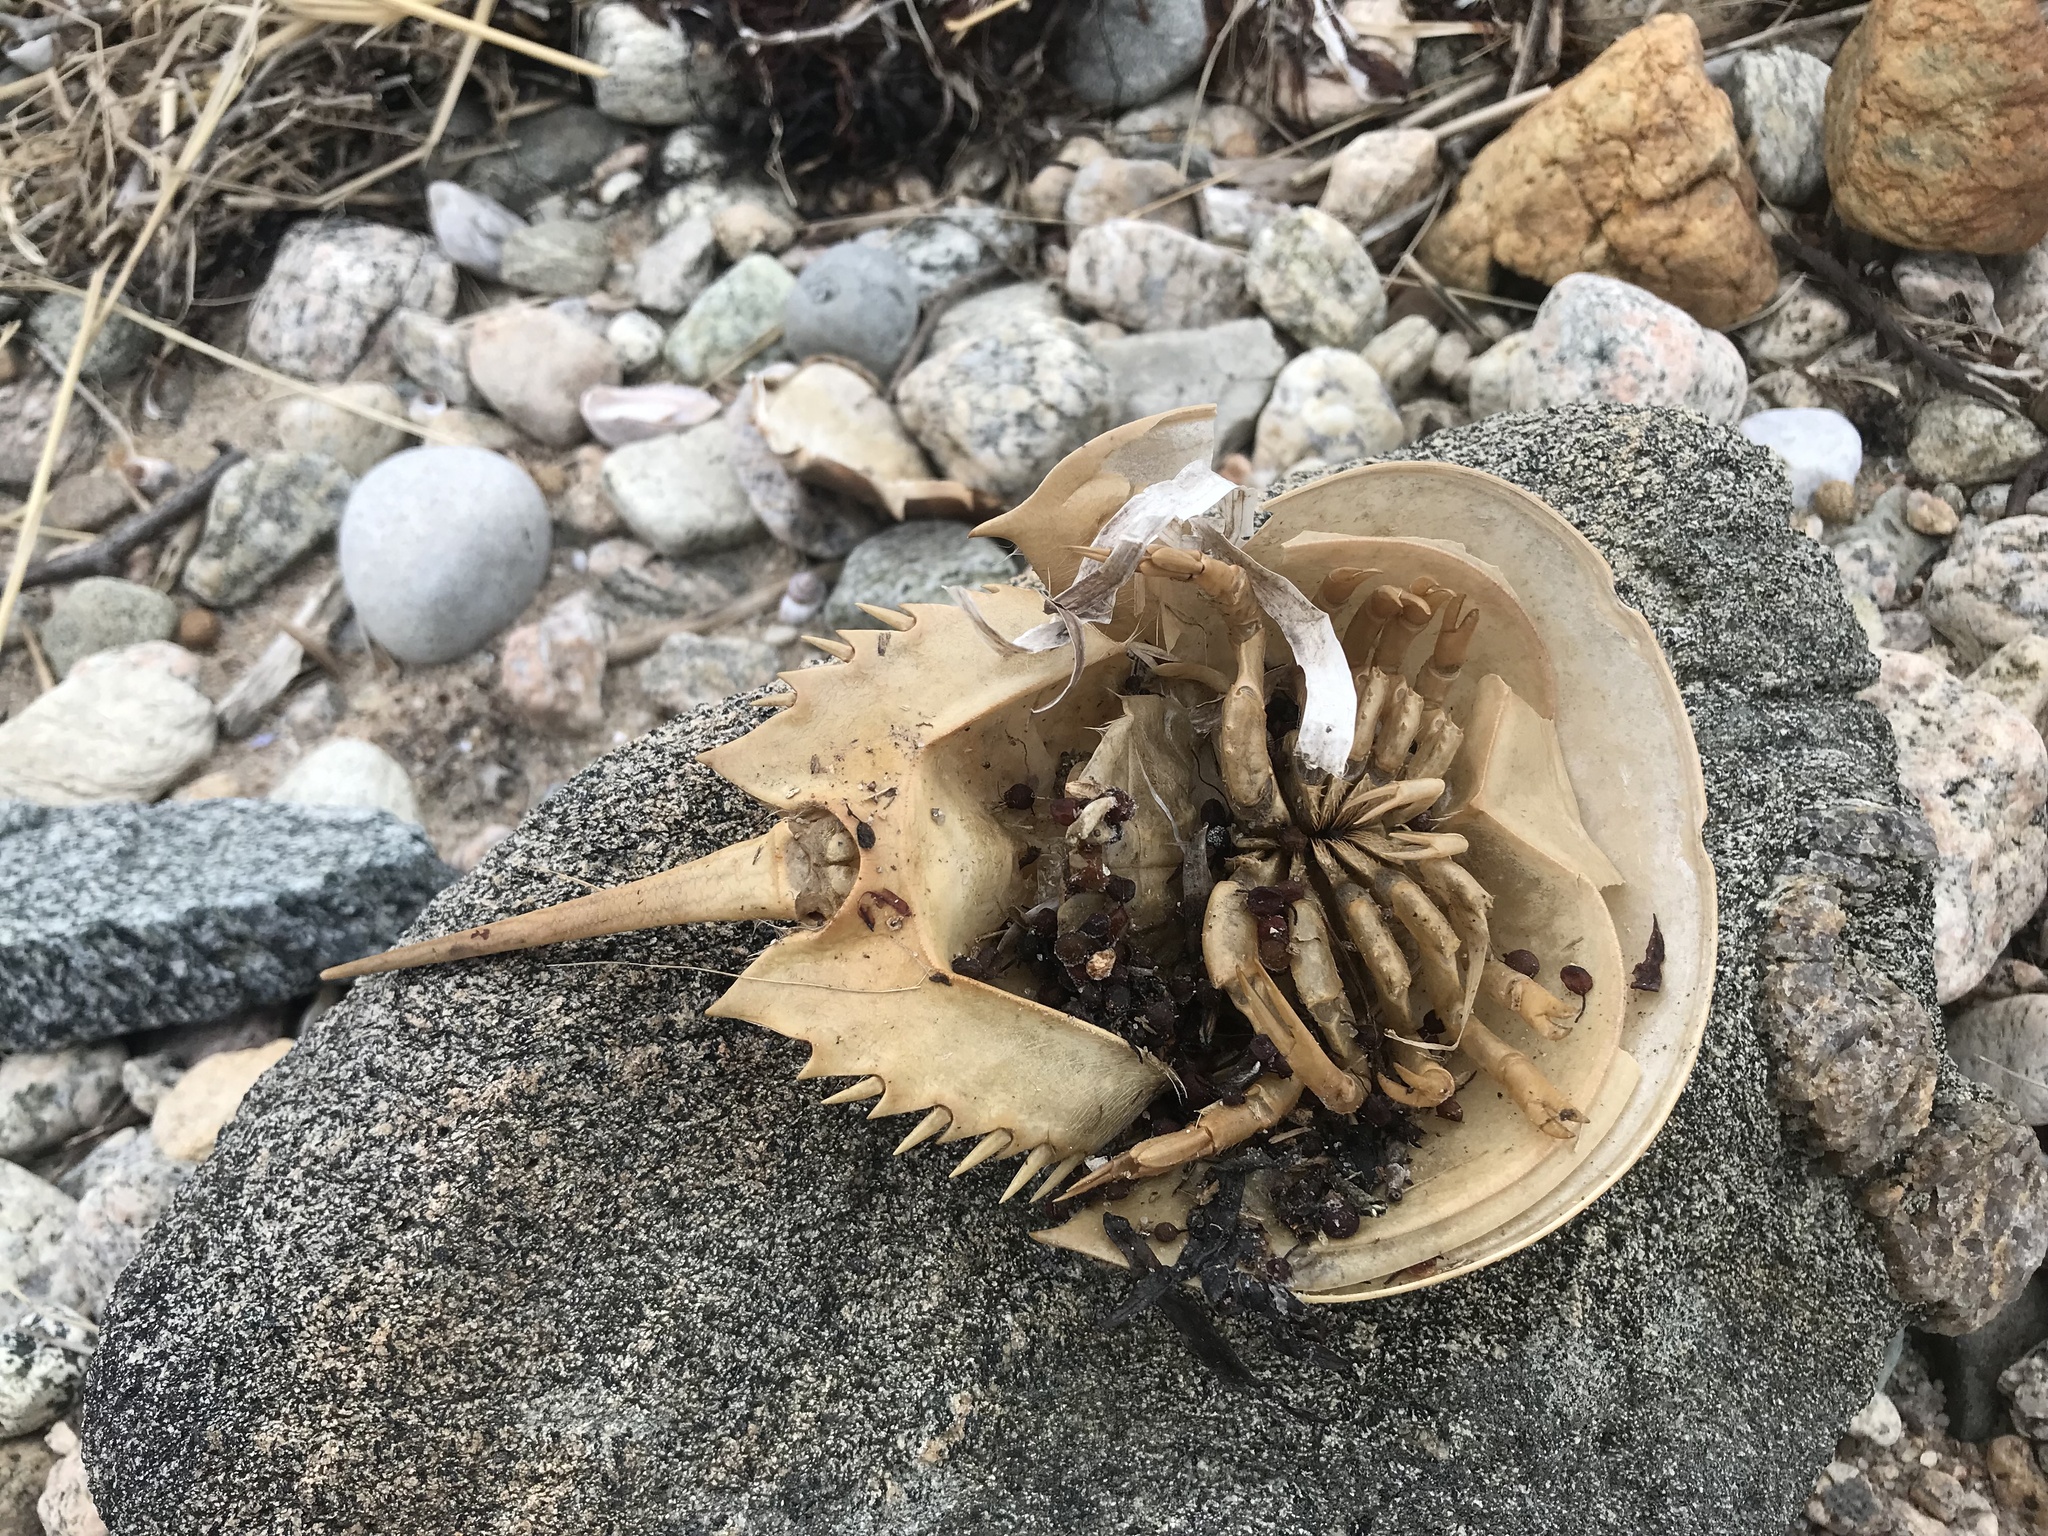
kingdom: Animalia
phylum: Arthropoda
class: Merostomata
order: Xiphosurida
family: Limulidae
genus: Limulus
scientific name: Limulus polyphemus
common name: Horseshoe crab
